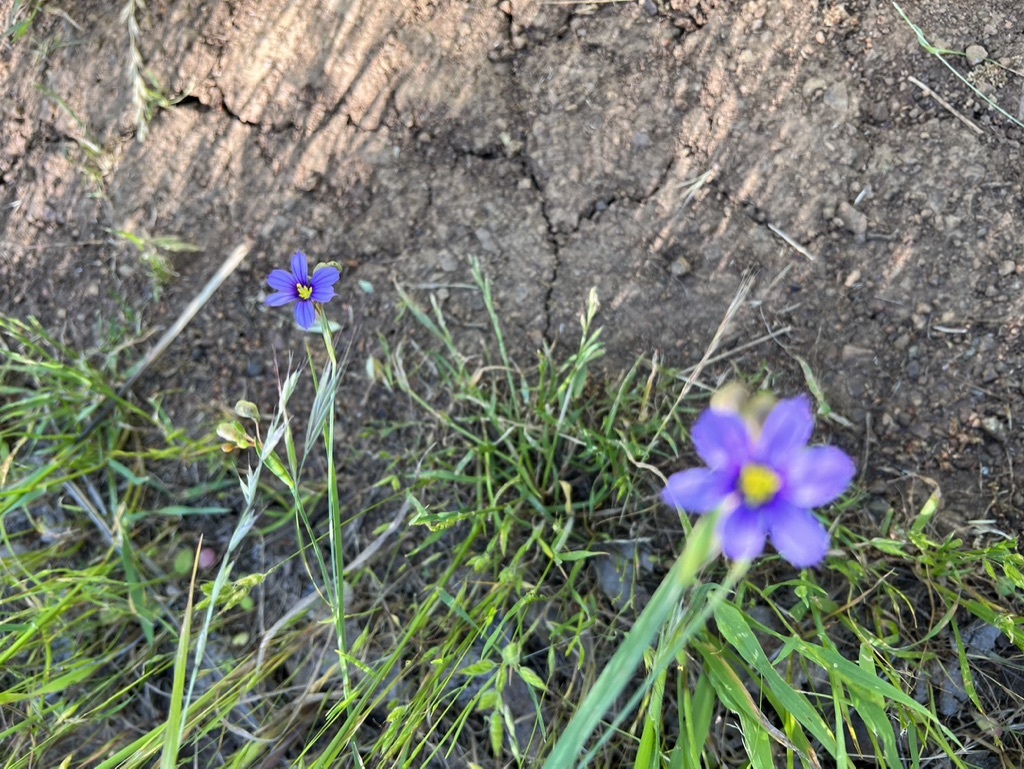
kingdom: Plantae
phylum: Tracheophyta
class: Liliopsida
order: Asparagales
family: Iridaceae
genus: Sisyrinchium
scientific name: Sisyrinchium bellum
